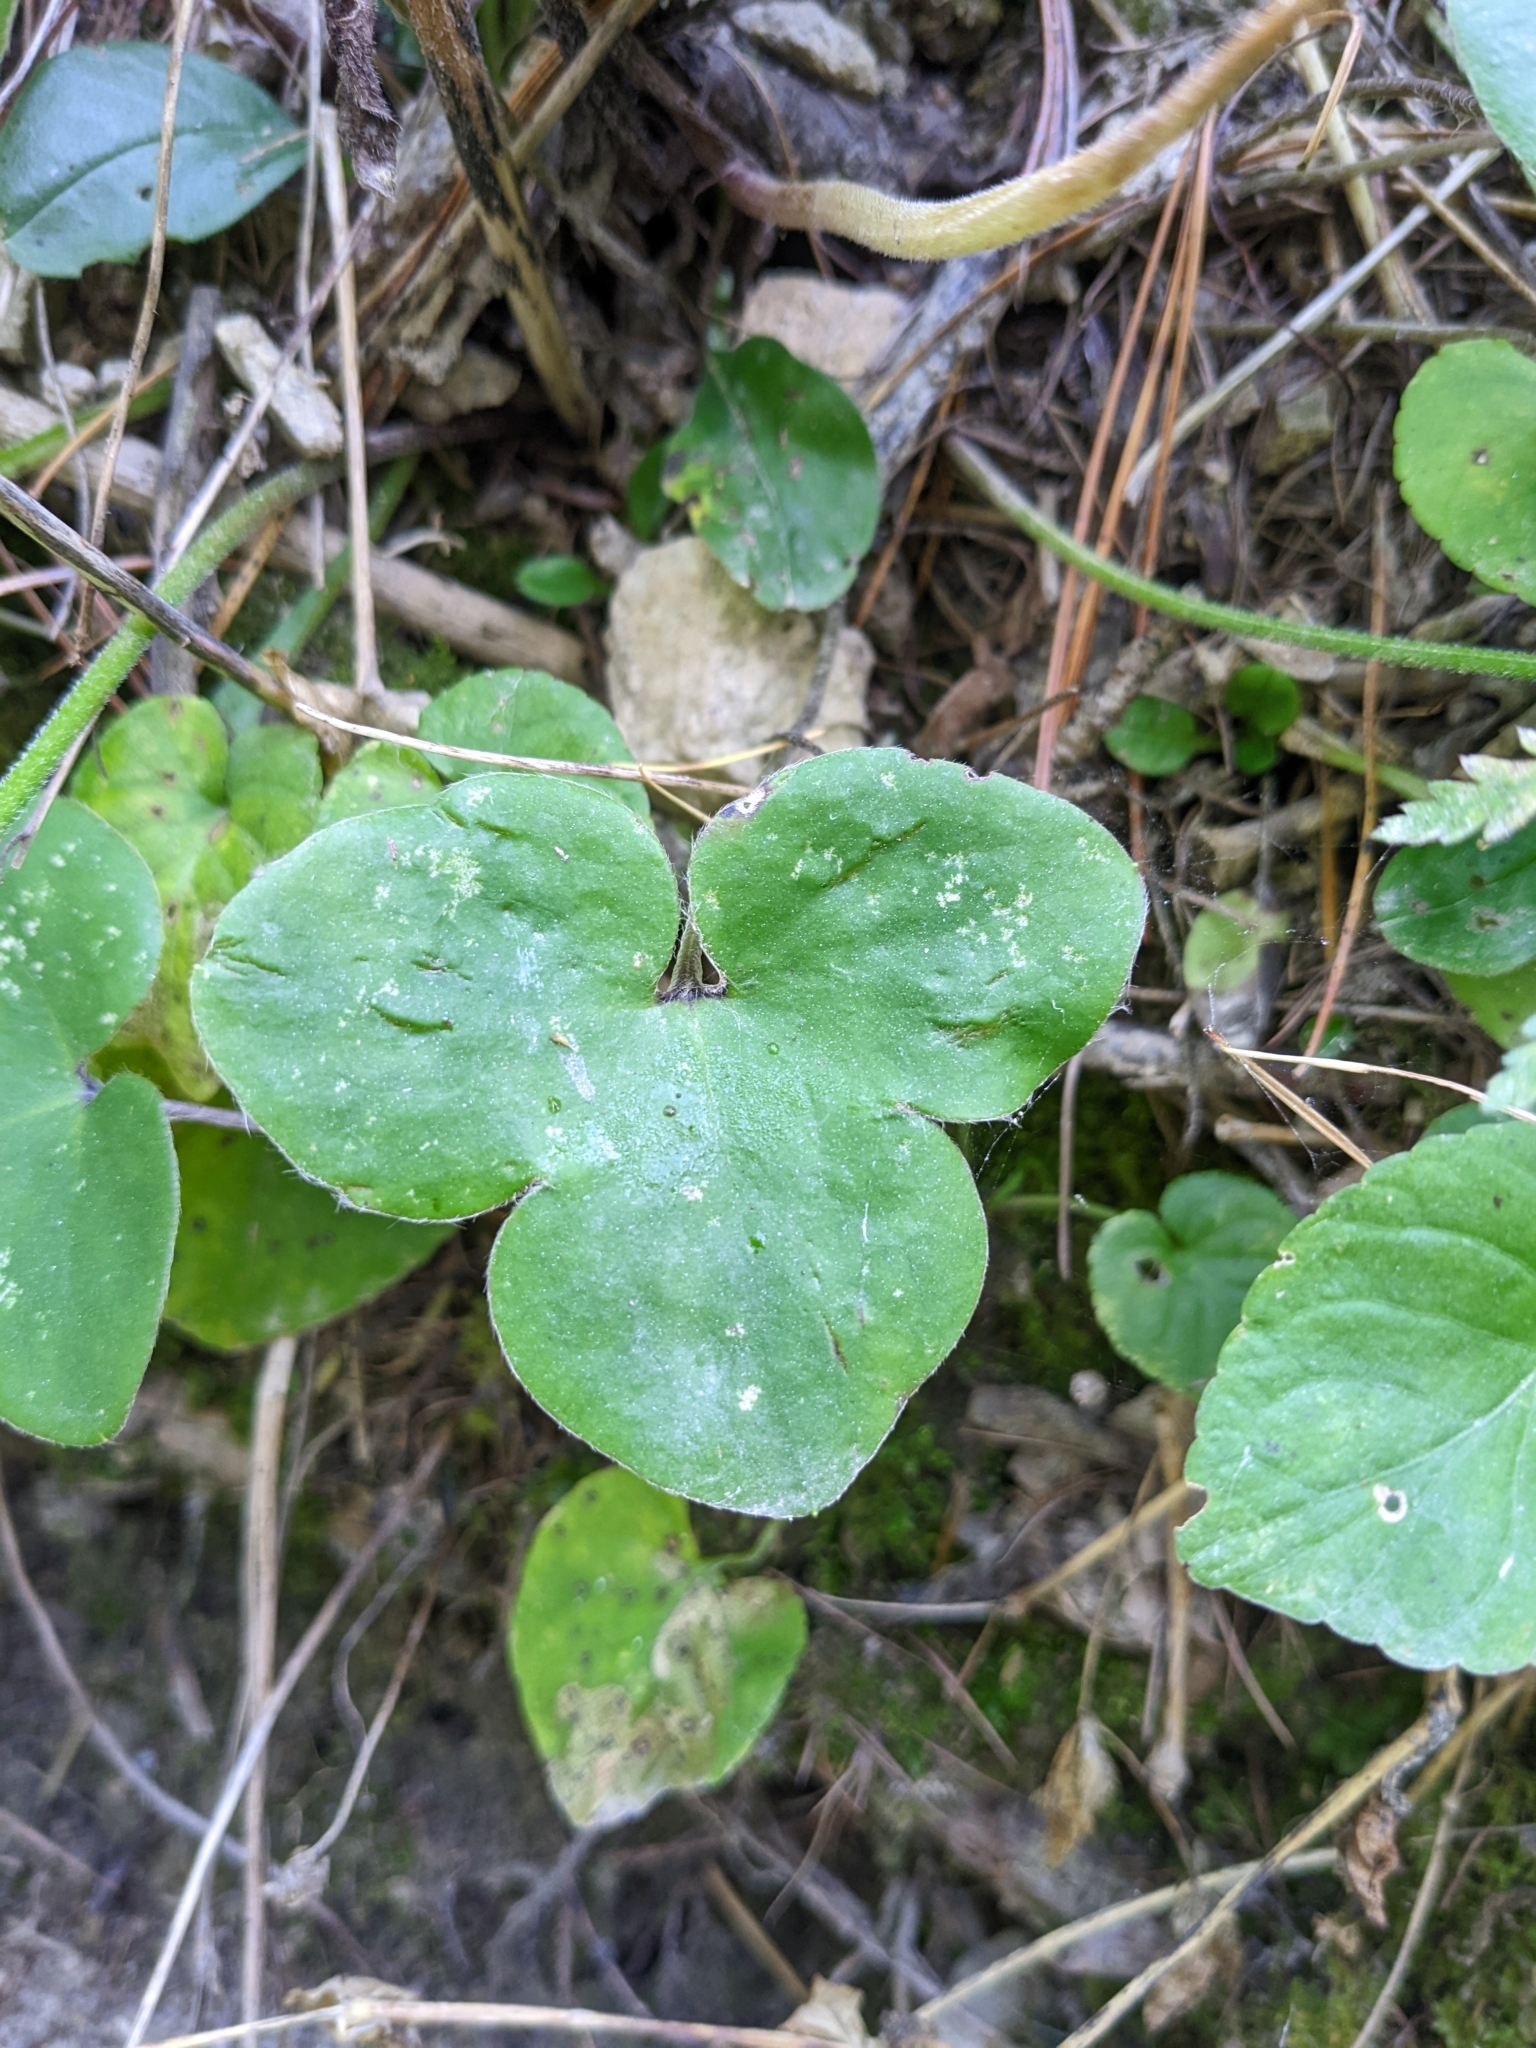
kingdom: Plantae
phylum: Tracheophyta
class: Magnoliopsida
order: Ranunculales
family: Ranunculaceae
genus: Hepatica
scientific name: Hepatica nobilis
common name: Liverleaf
